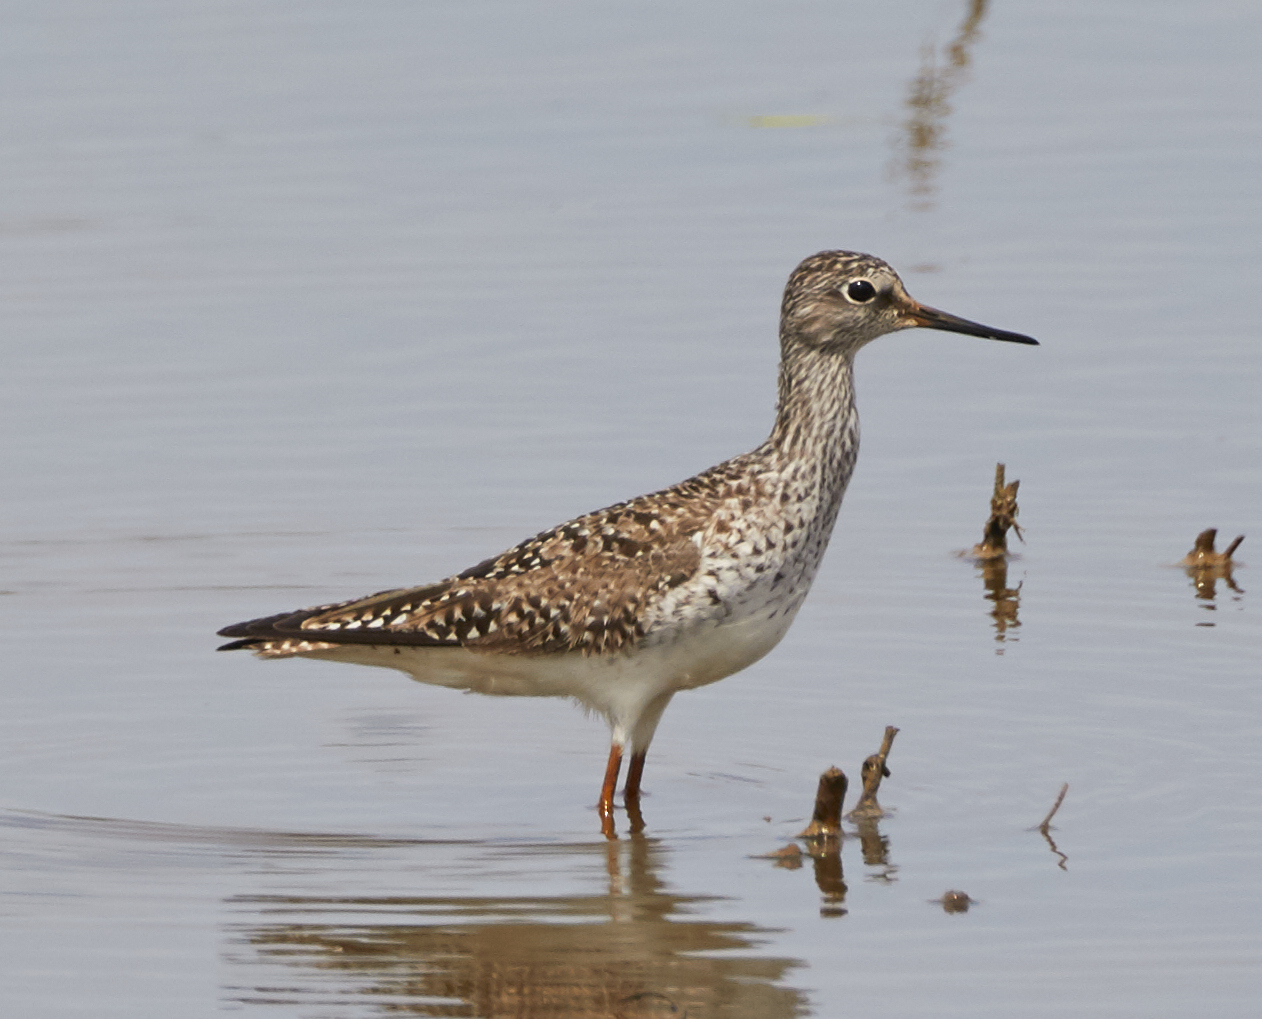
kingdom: Animalia
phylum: Chordata
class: Aves
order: Charadriiformes
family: Scolopacidae
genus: Tringa
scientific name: Tringa flavipes
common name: Lesser yellowlegs
